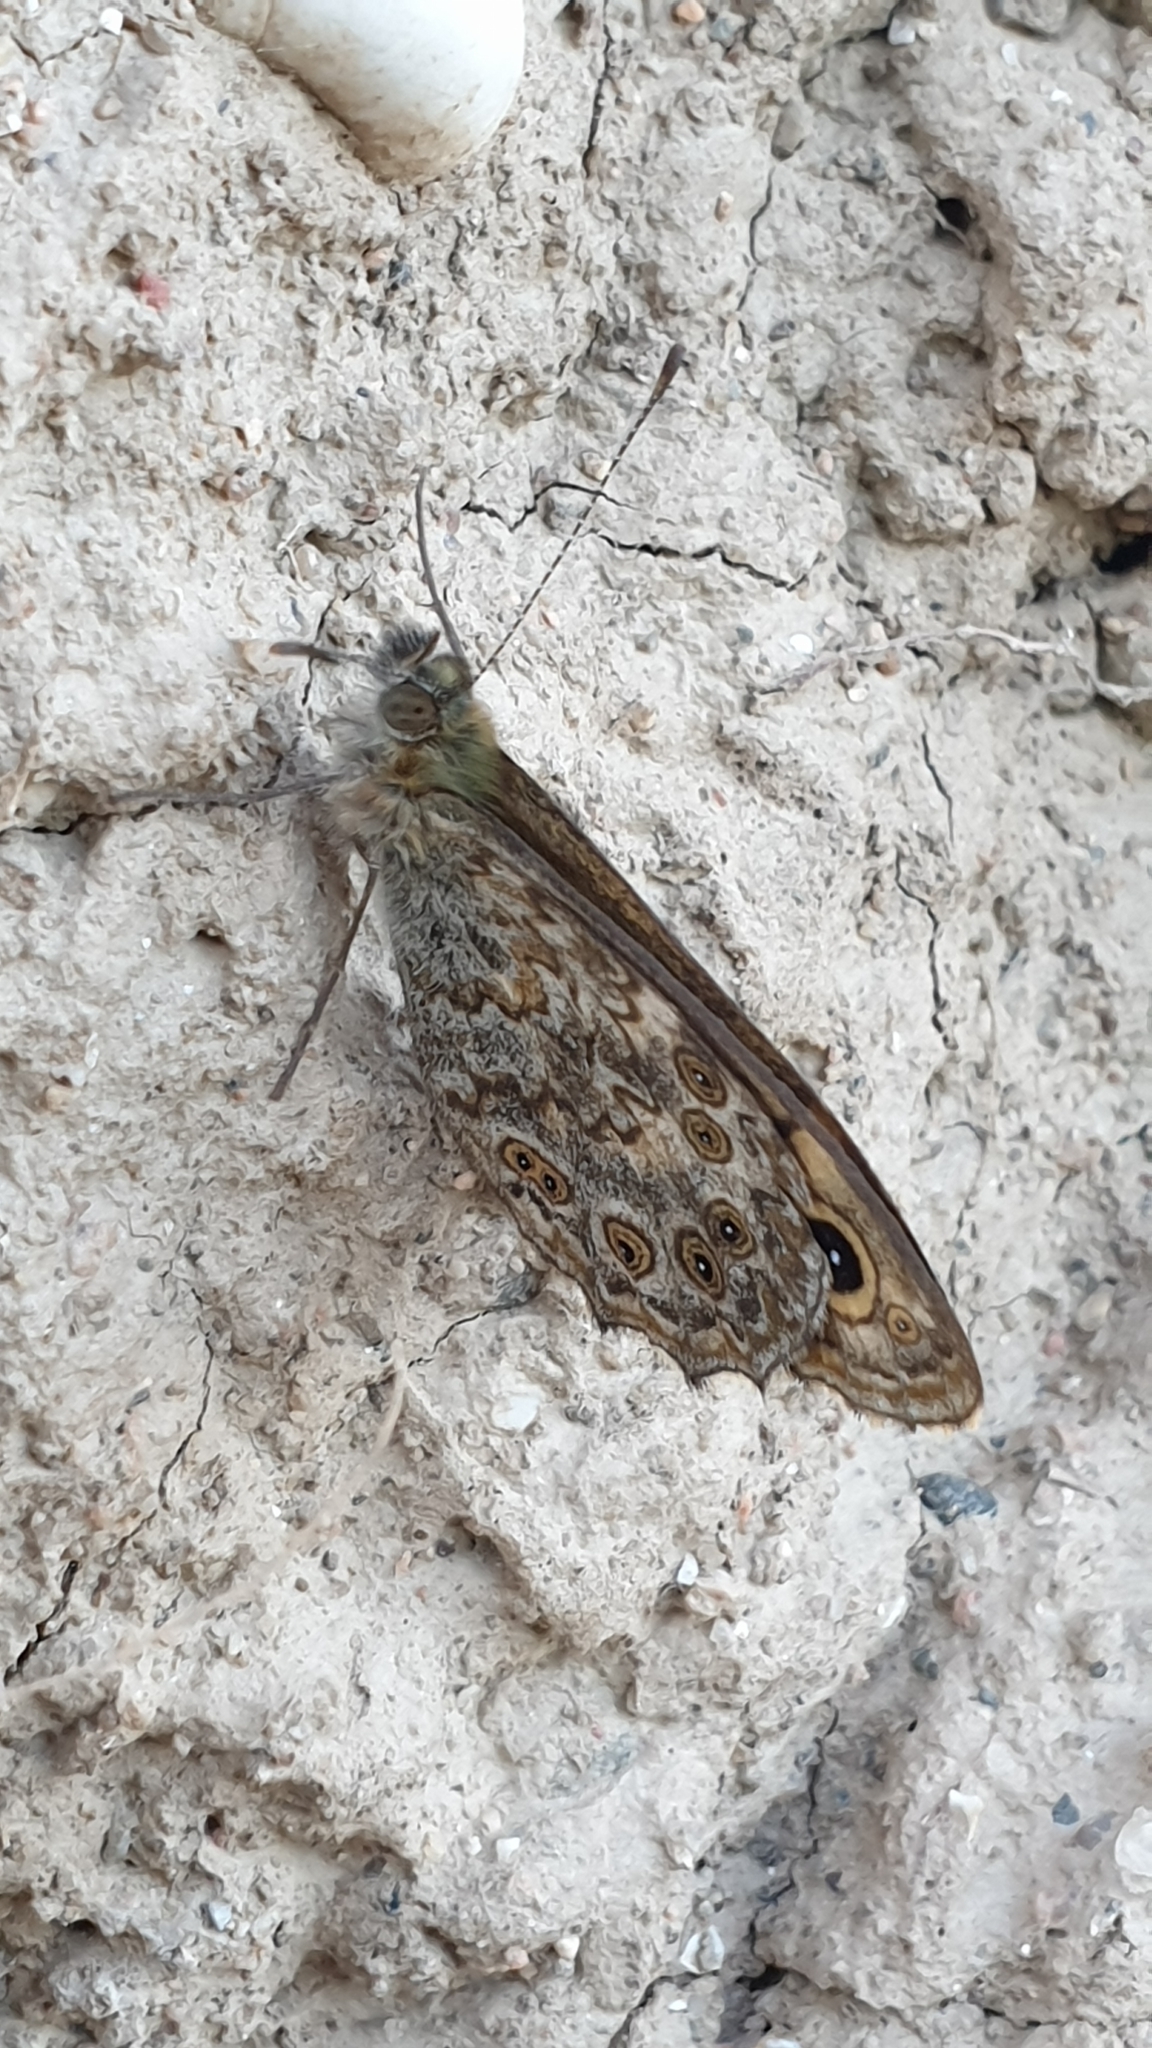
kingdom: Animalia
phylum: Arthropoda
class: Insecta
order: Lepidoptera
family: Nymphalidae
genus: Pararge
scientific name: Pararge Lasiommata megera
